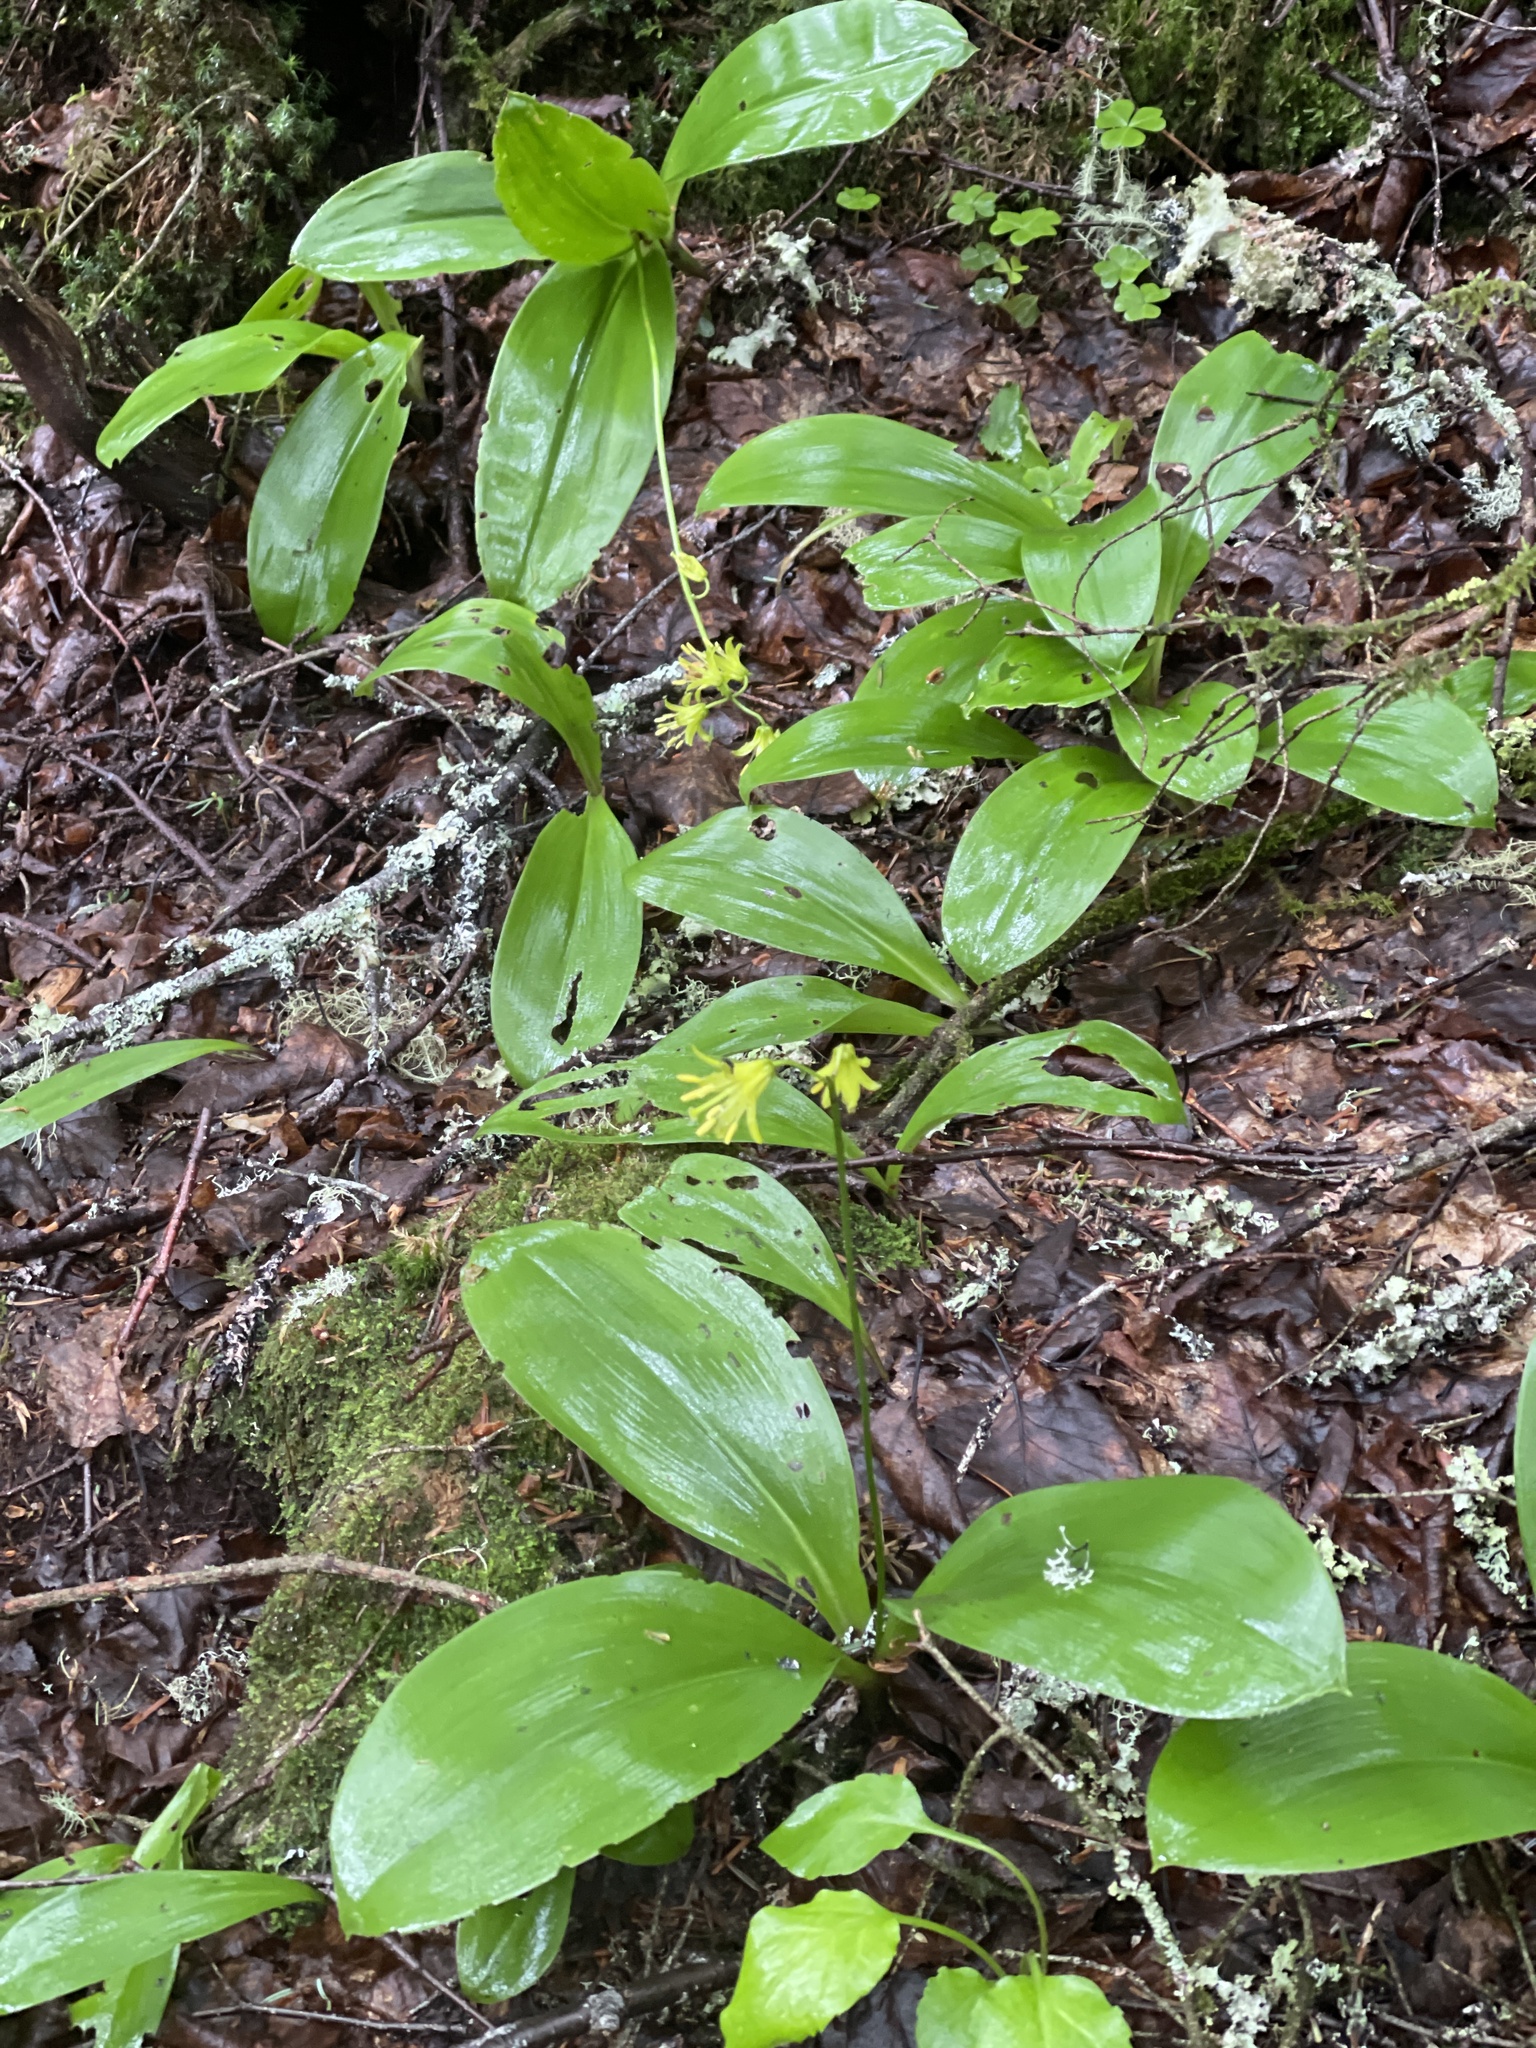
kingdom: Plantae
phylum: Tracheophyta
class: Liliopsida
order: Liliales
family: Liliaceae
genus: Clintonia
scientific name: Clintonia borealis
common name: Yellow clintonia
